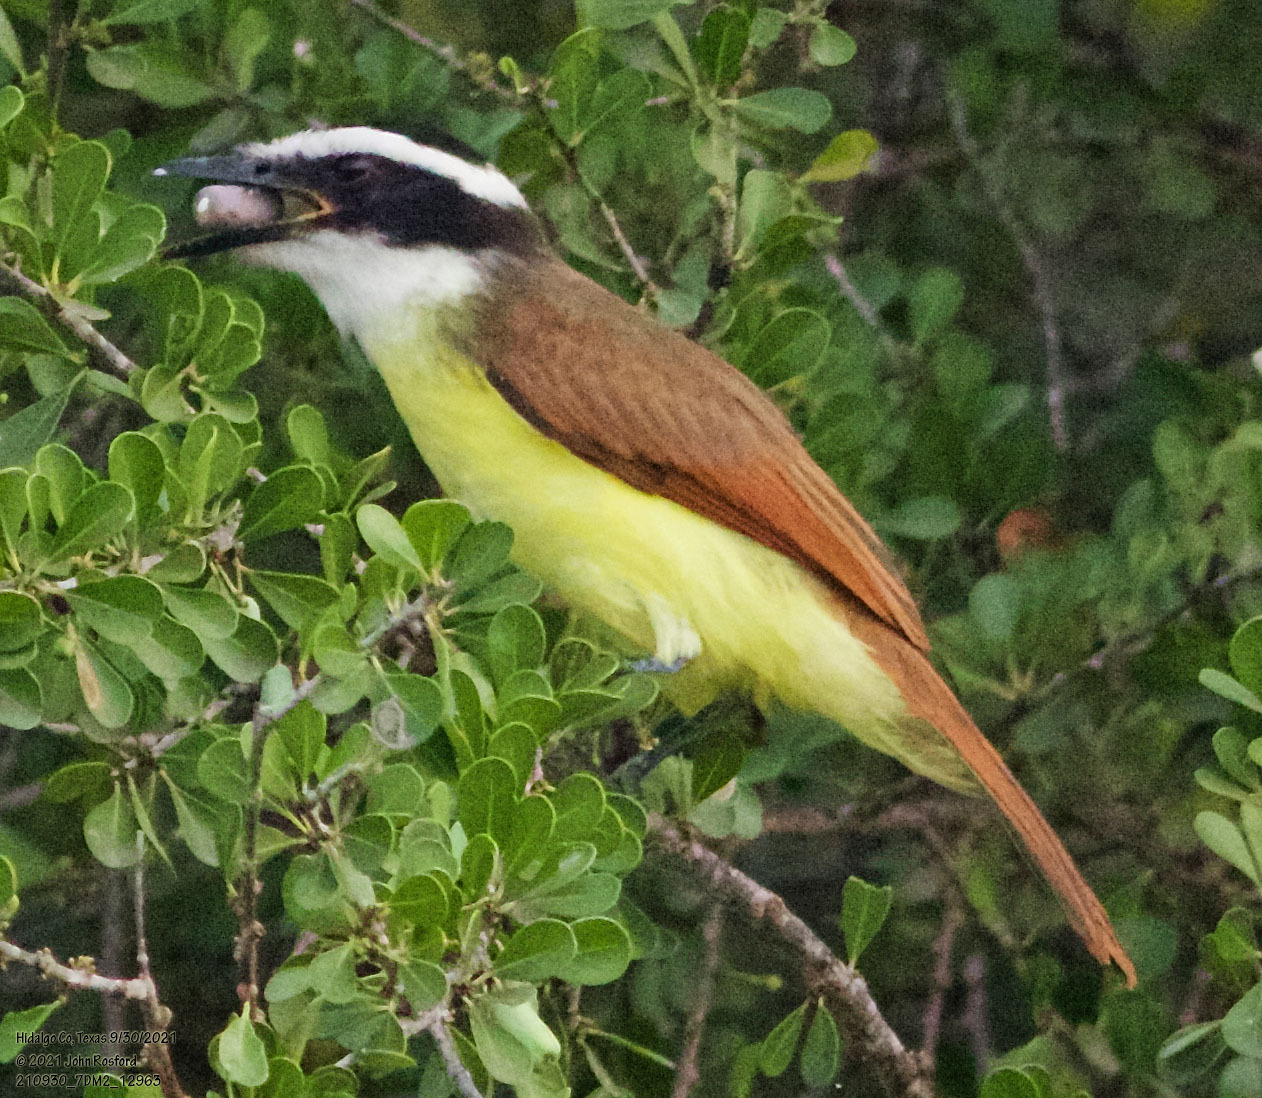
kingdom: Animalia
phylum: Chordata
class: Aves
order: Passeriformes
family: Tyrannidae
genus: Pitangus
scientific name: Pitangus sulphuratus
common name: Great kiskadee
